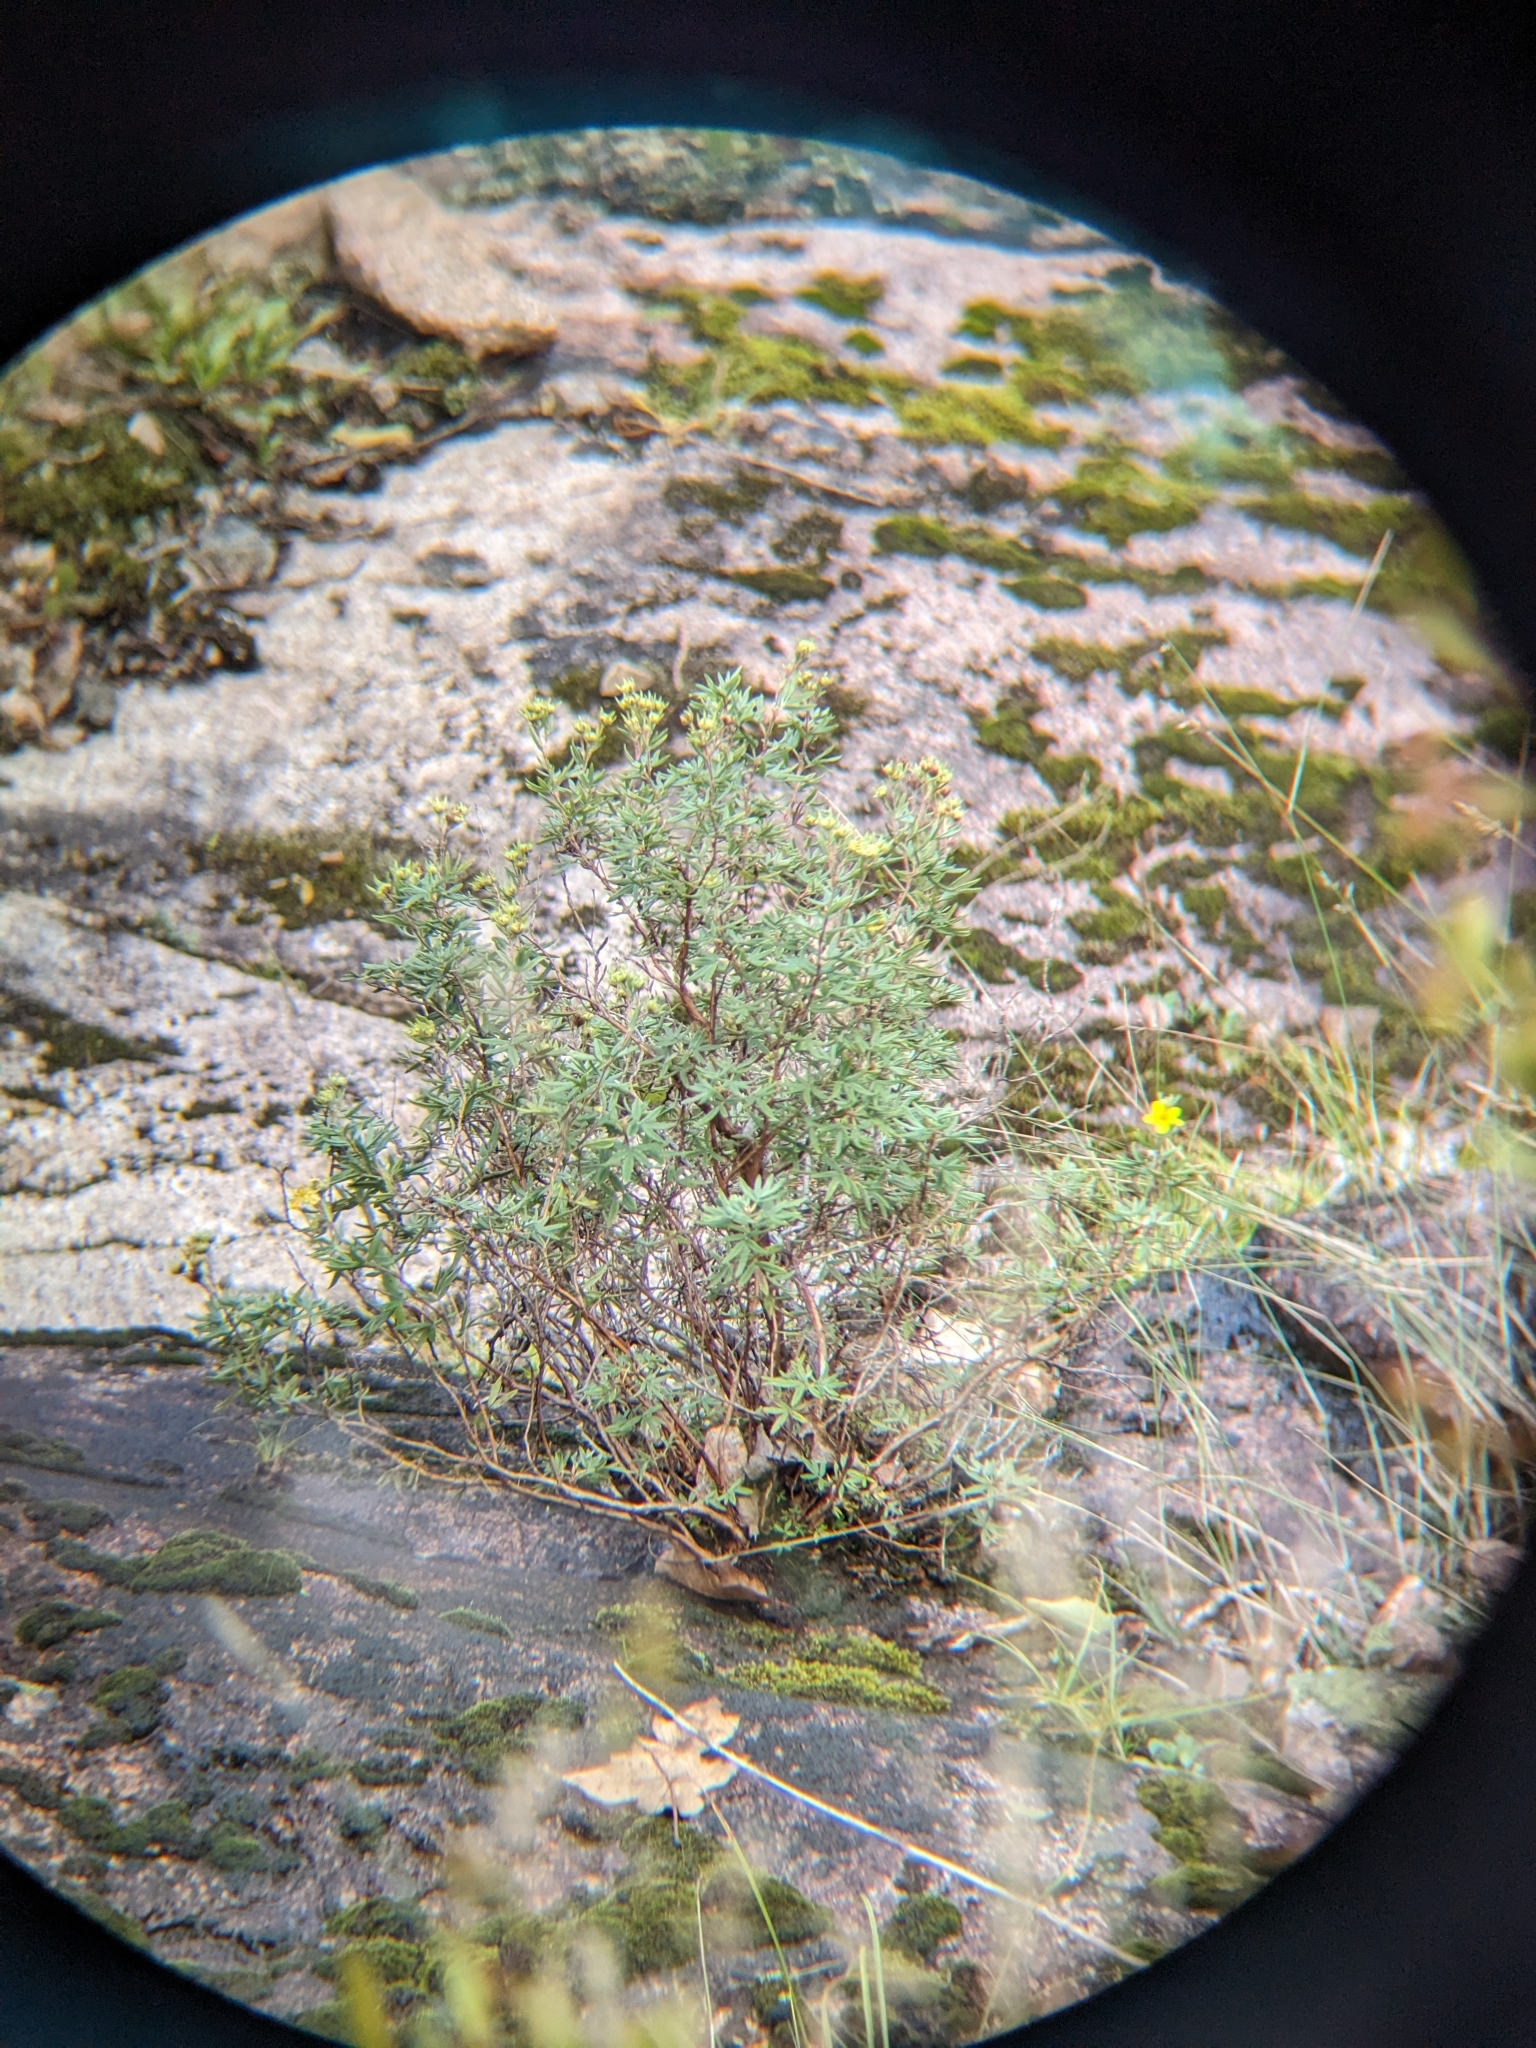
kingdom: Plantae
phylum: Tracheophyta
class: Magnoliopsida
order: Rosales
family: Rosaceae
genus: Dasiphora
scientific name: Dasiphora fruticosa
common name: Shrubby cinquefoil
